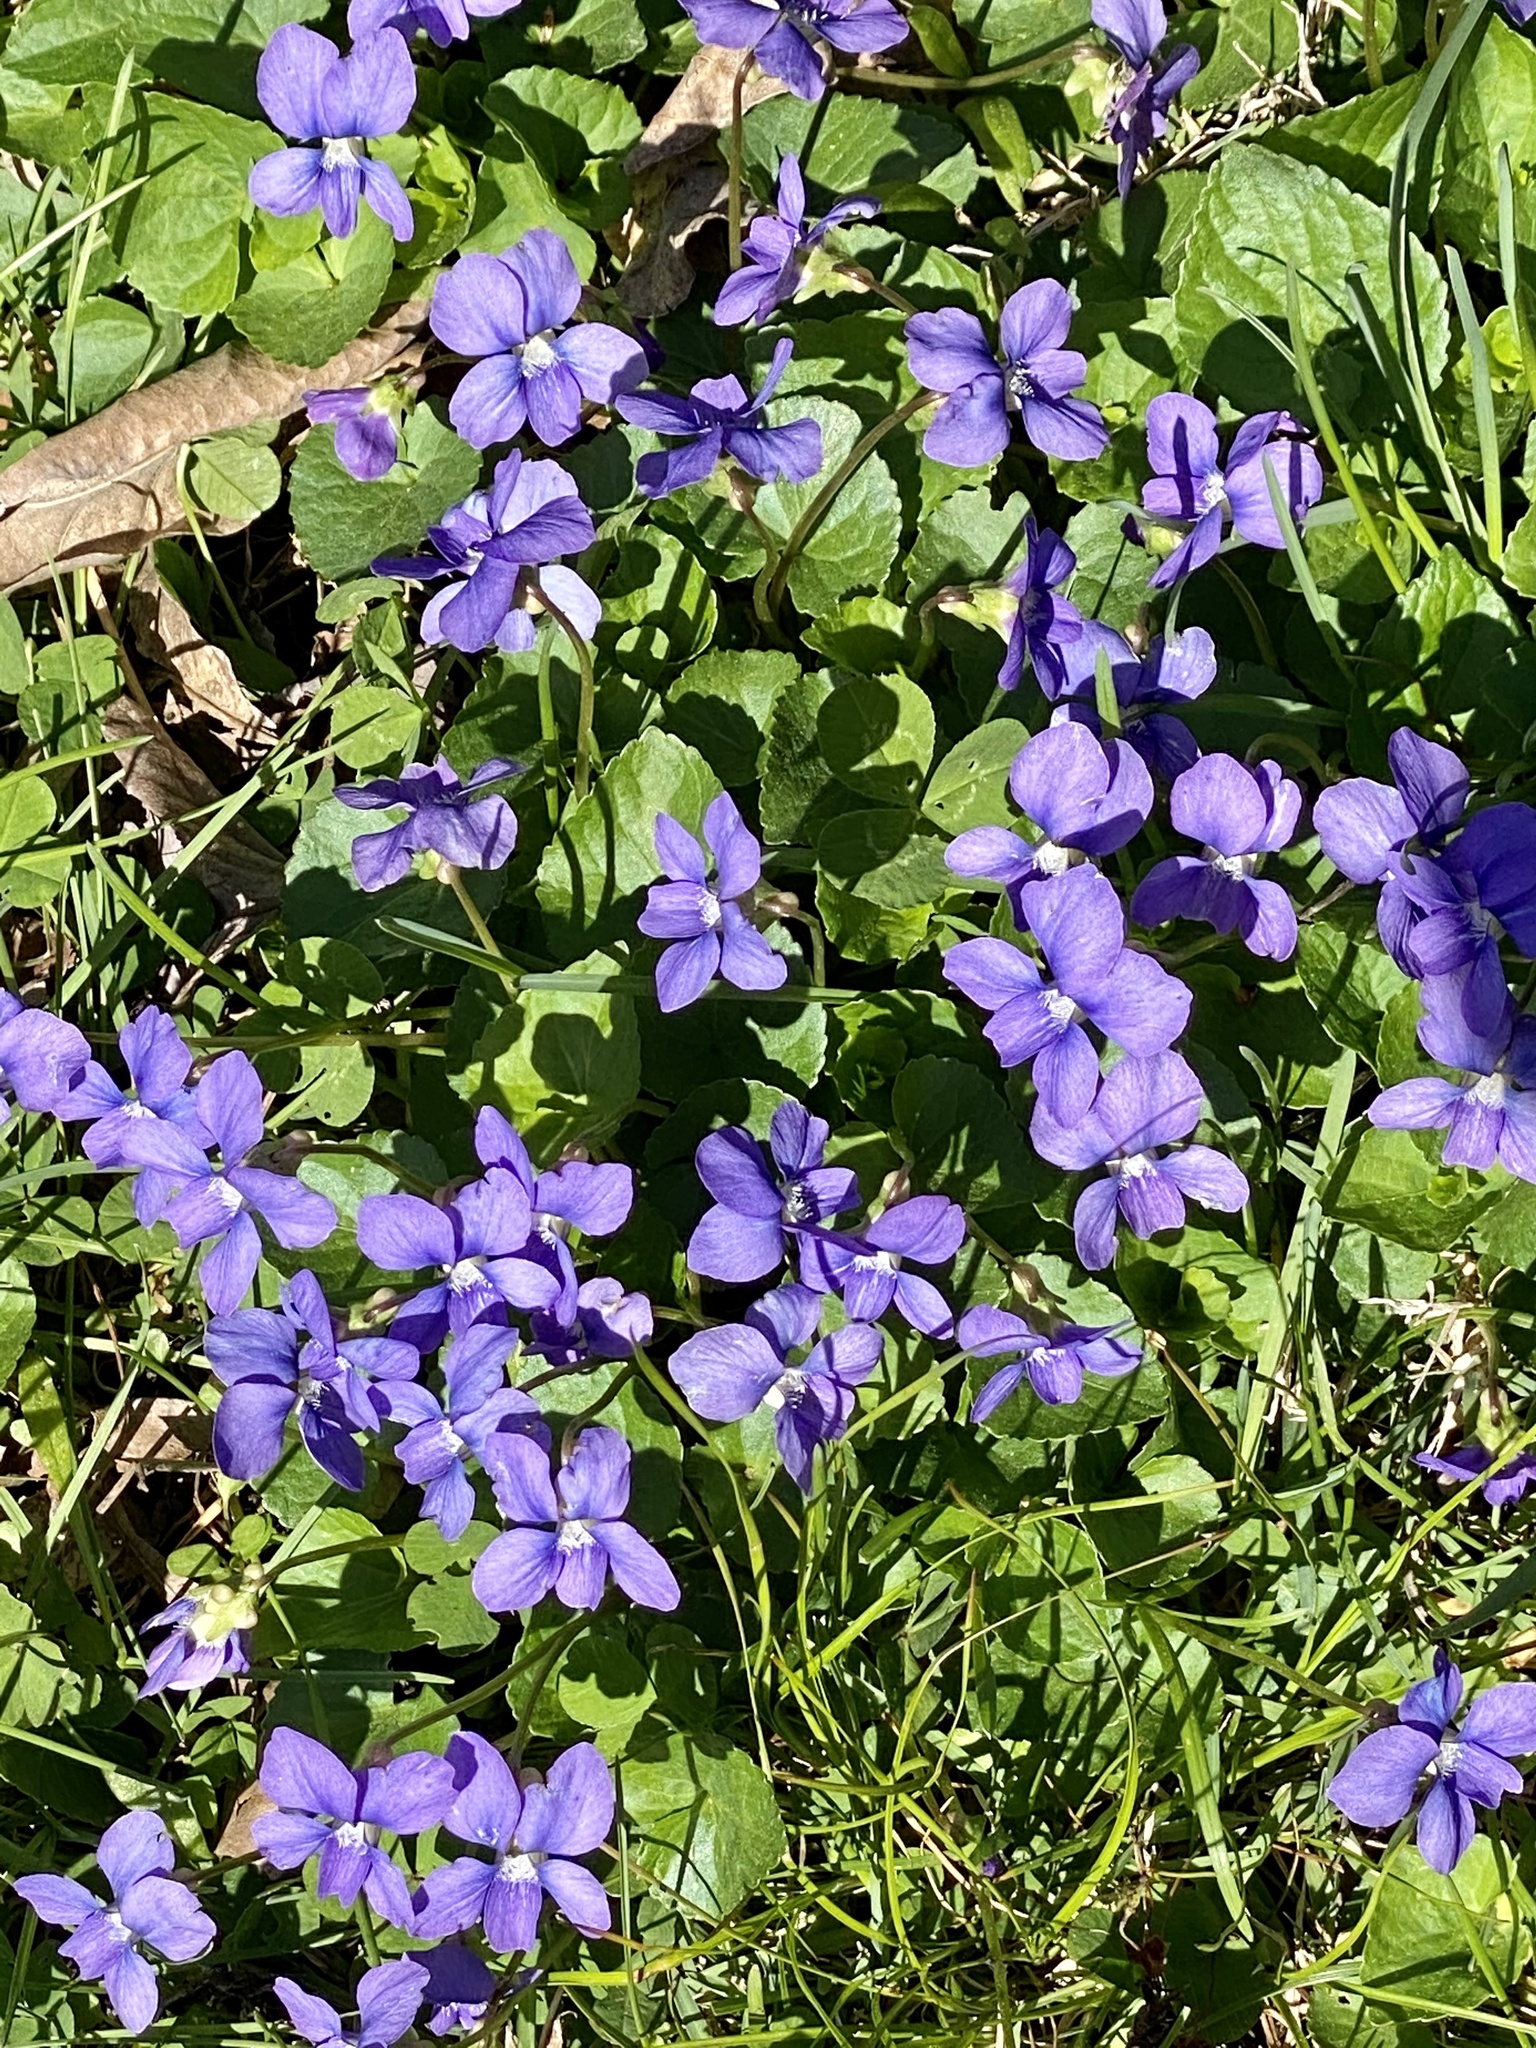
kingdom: Plantae
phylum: Tracheophyta
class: Magnoliopsida
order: Malpighiales
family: Violaceae
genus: Viola
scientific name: Viola sororia
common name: Dooryard violet
